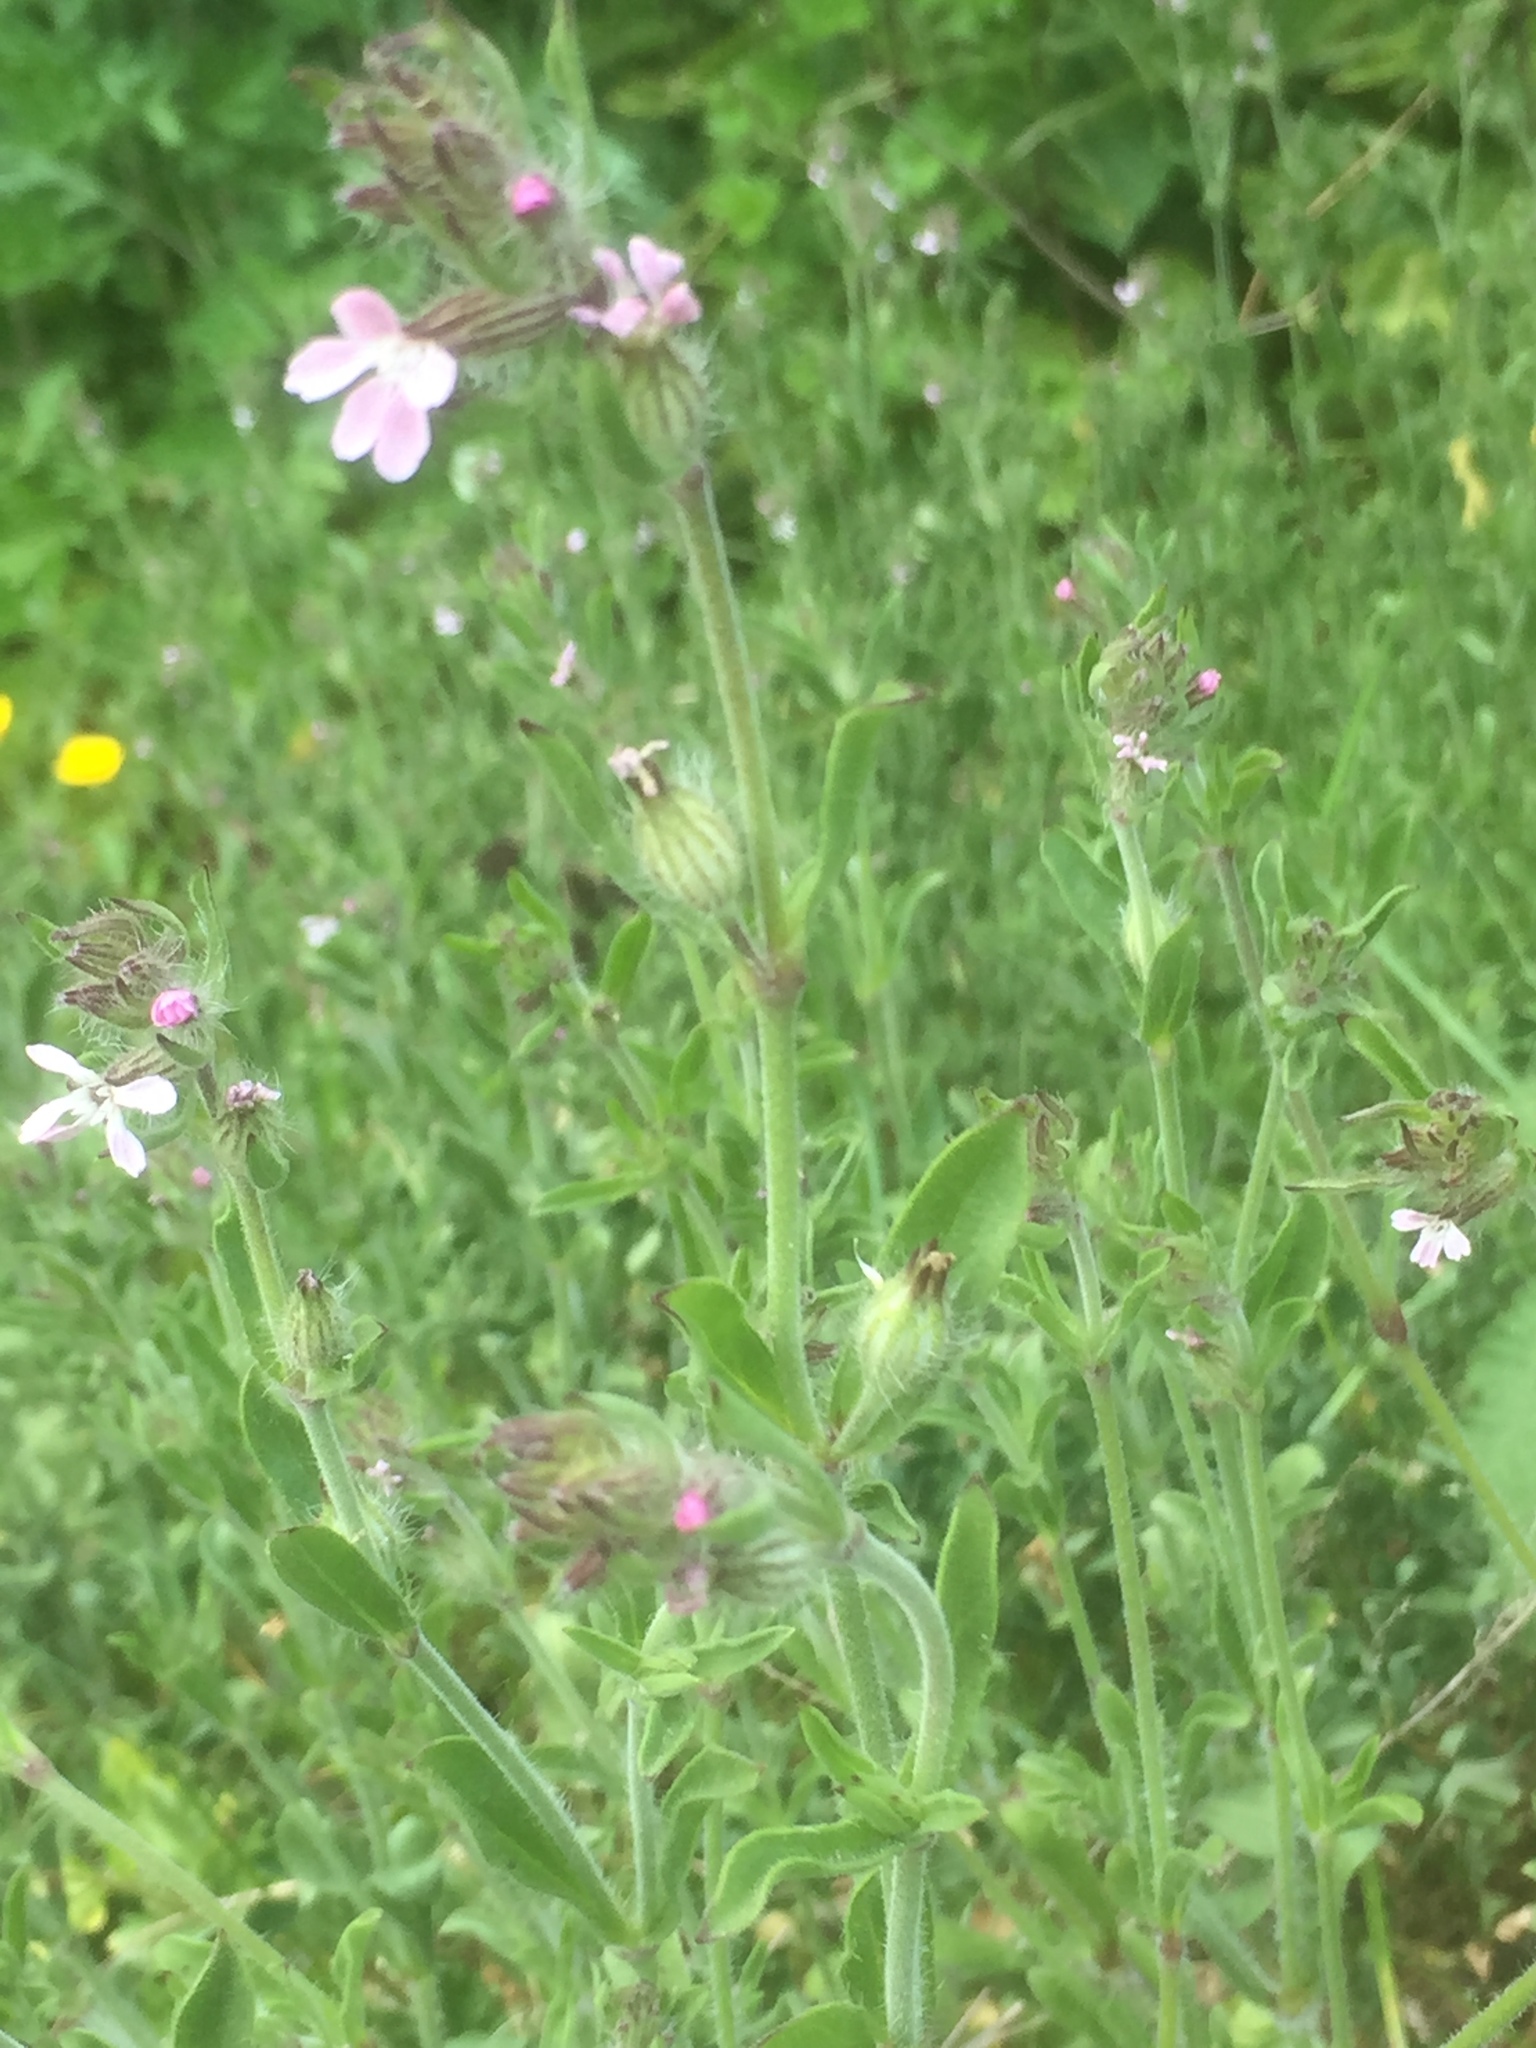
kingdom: Plantae
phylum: Tracheophyta
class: Magnoliopsida
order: Caryophyllales
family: Caryophyllaceae
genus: Silene
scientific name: Silene gallica
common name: Small-flowered catchfly
